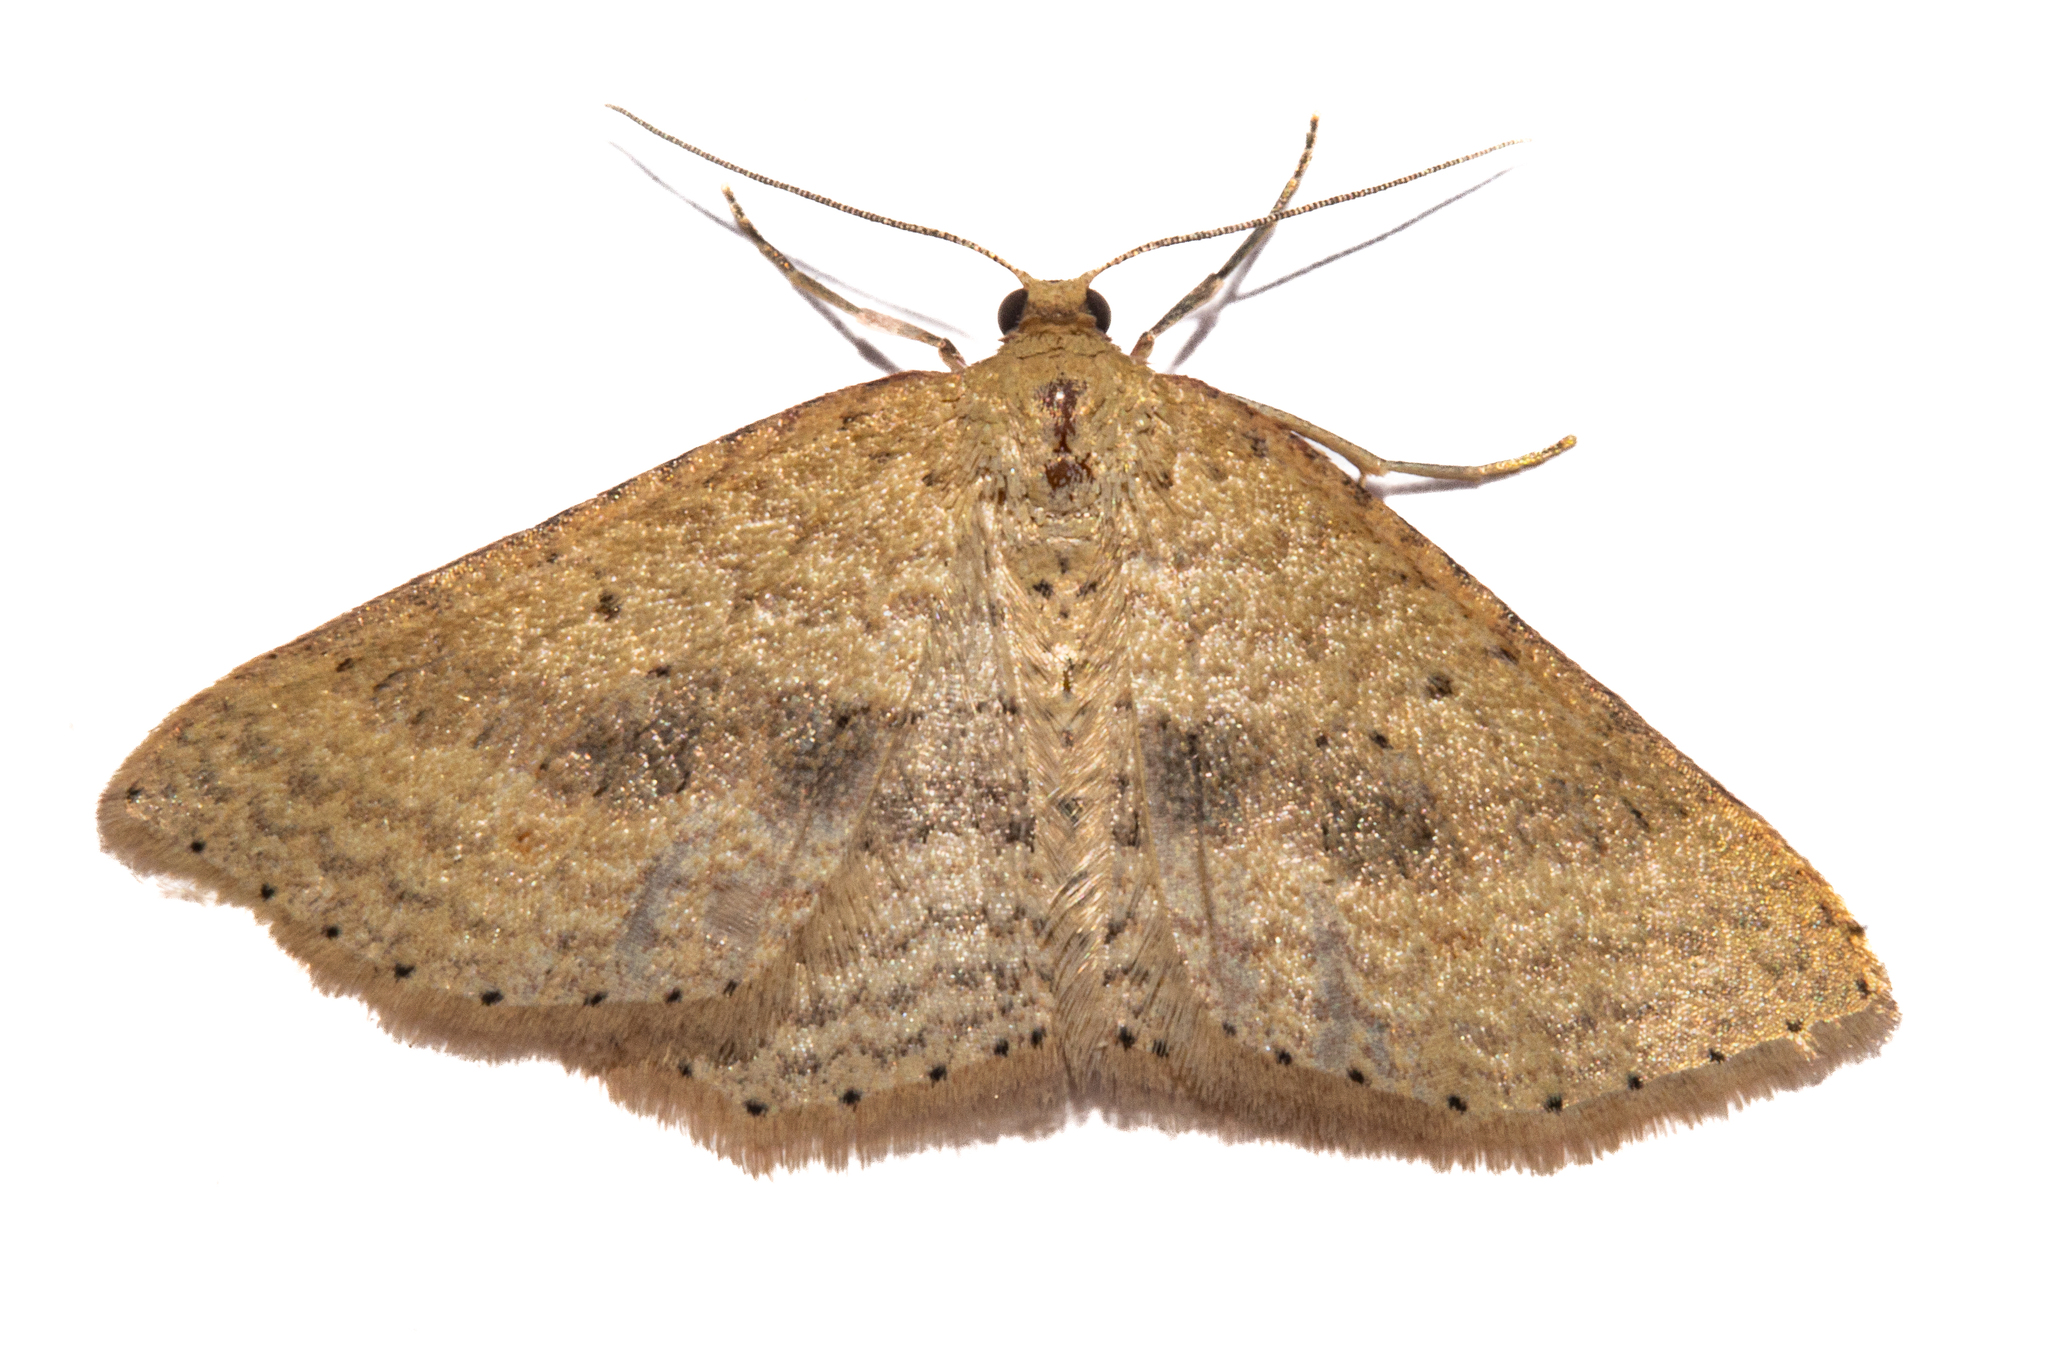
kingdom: Animalia
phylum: Arthropoda
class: Insecta
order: Lepidoptera
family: Geometridae
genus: Epicyme
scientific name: Epicyme rubropunctaria
